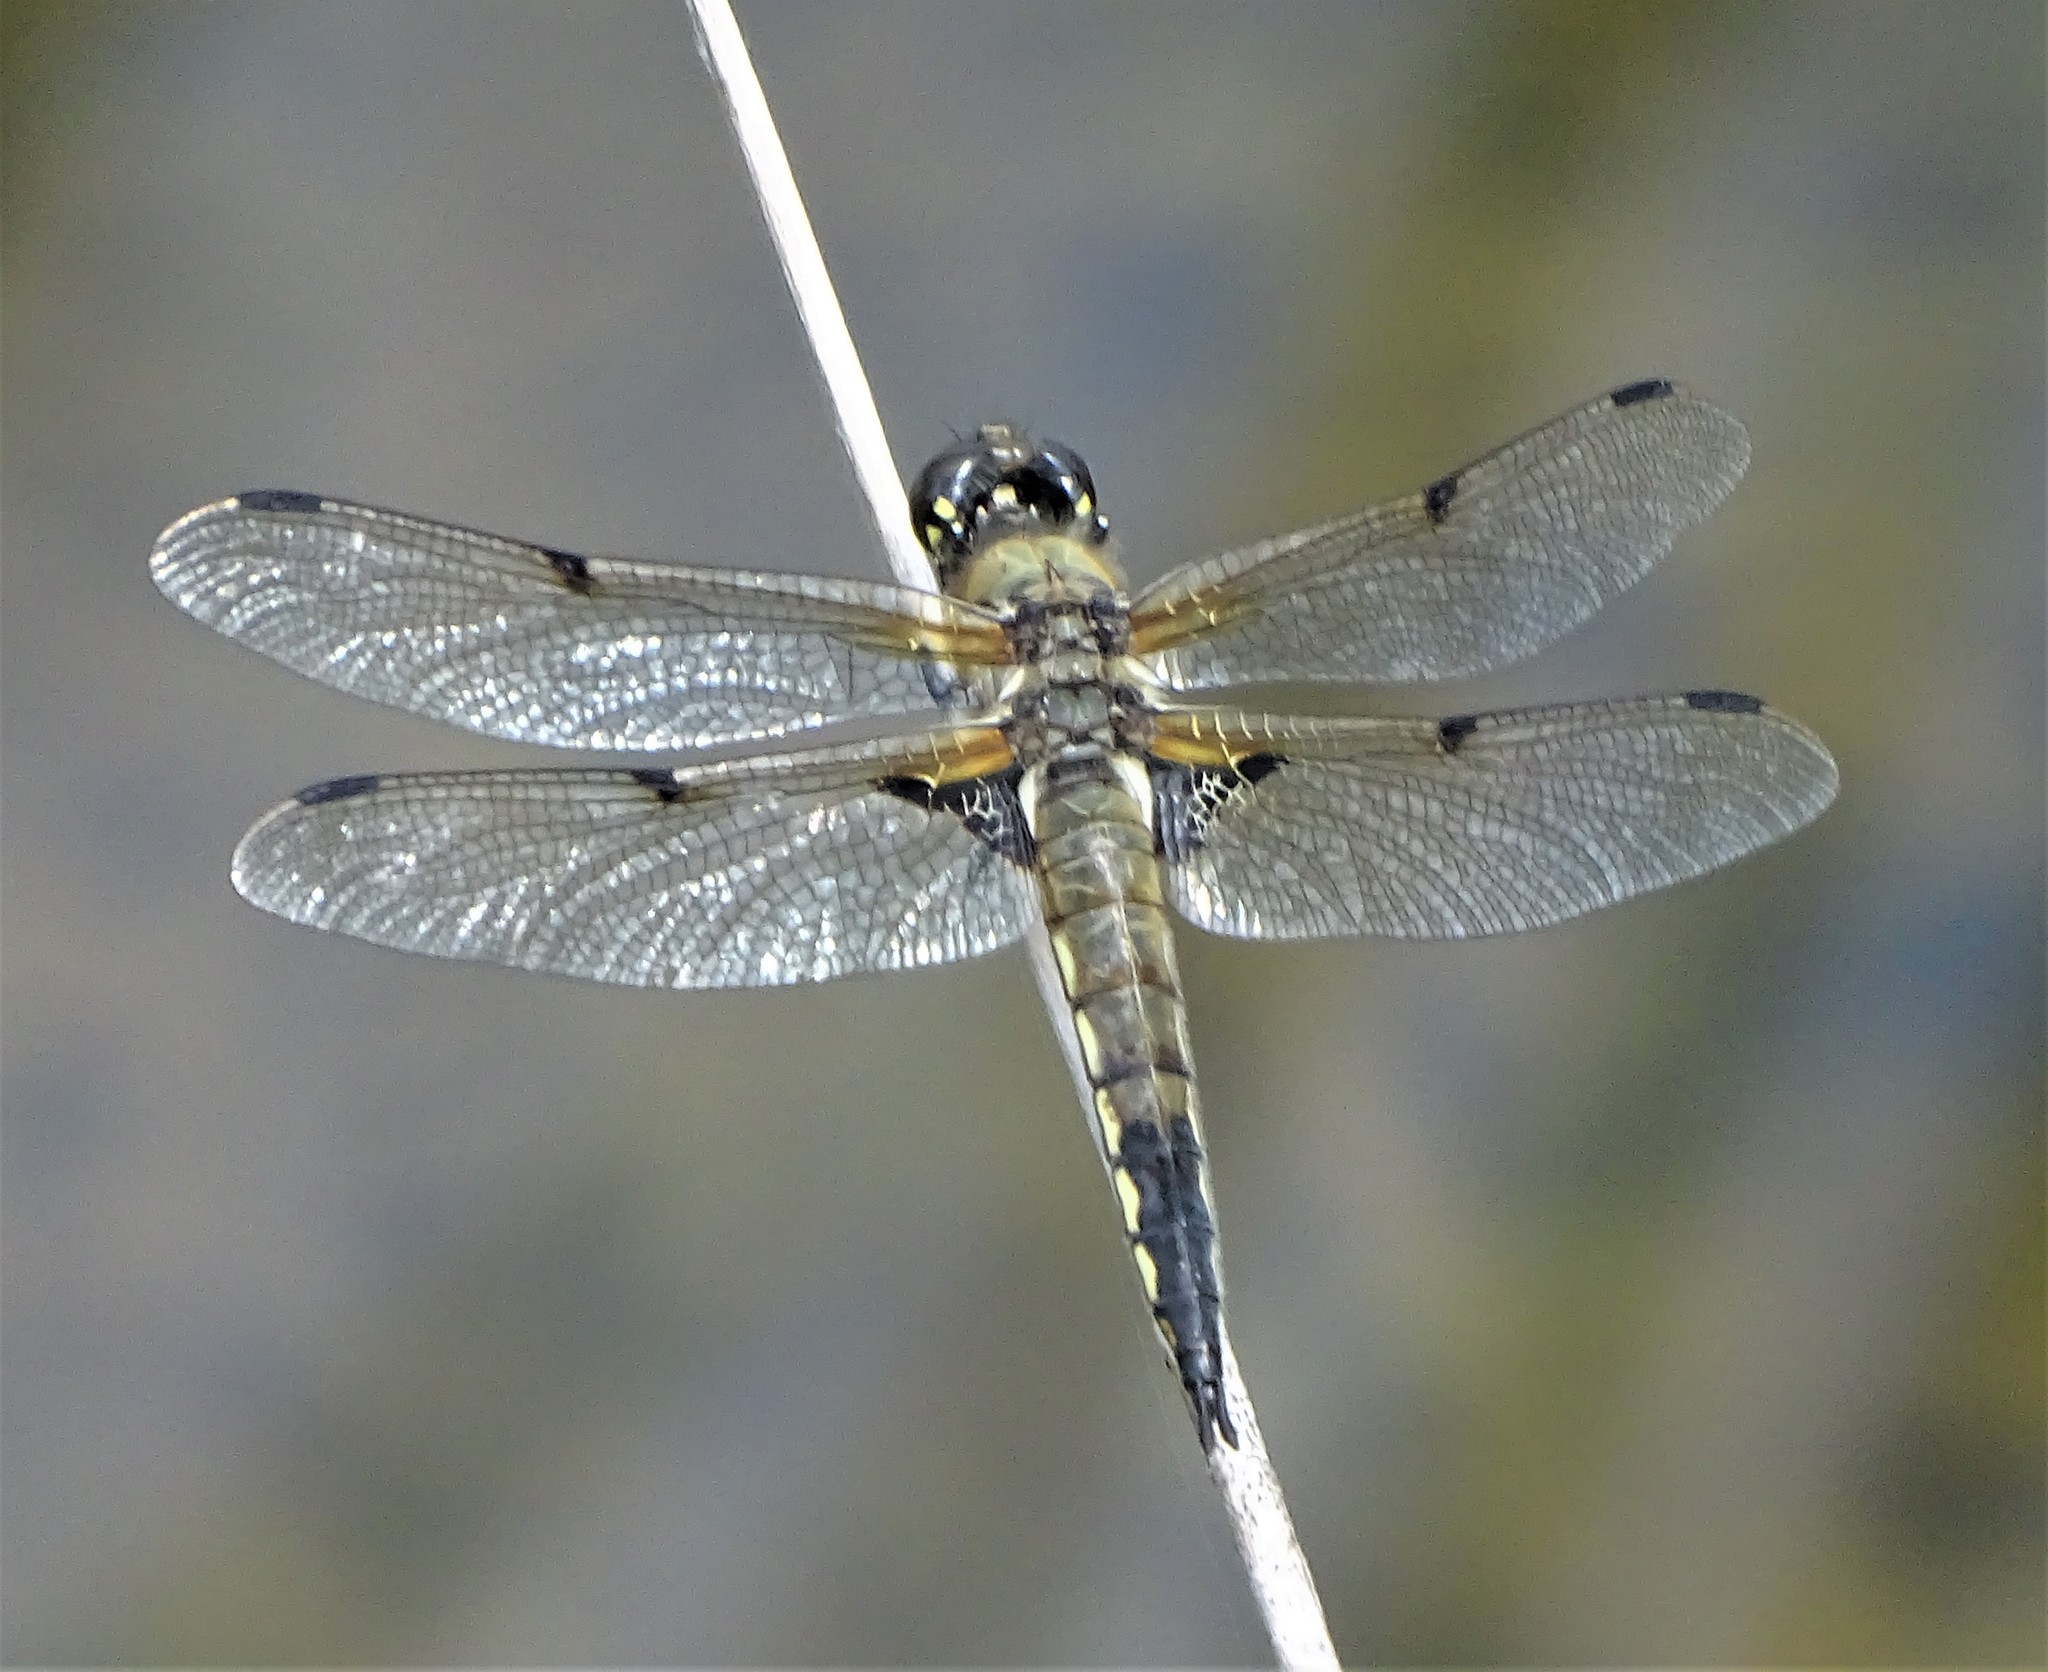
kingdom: Animalia
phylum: Arthropoda
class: Insecta
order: Odonata
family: Libellulidae
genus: Libellula
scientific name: Libellula quadrimaculata
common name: Four-spotted chaser
